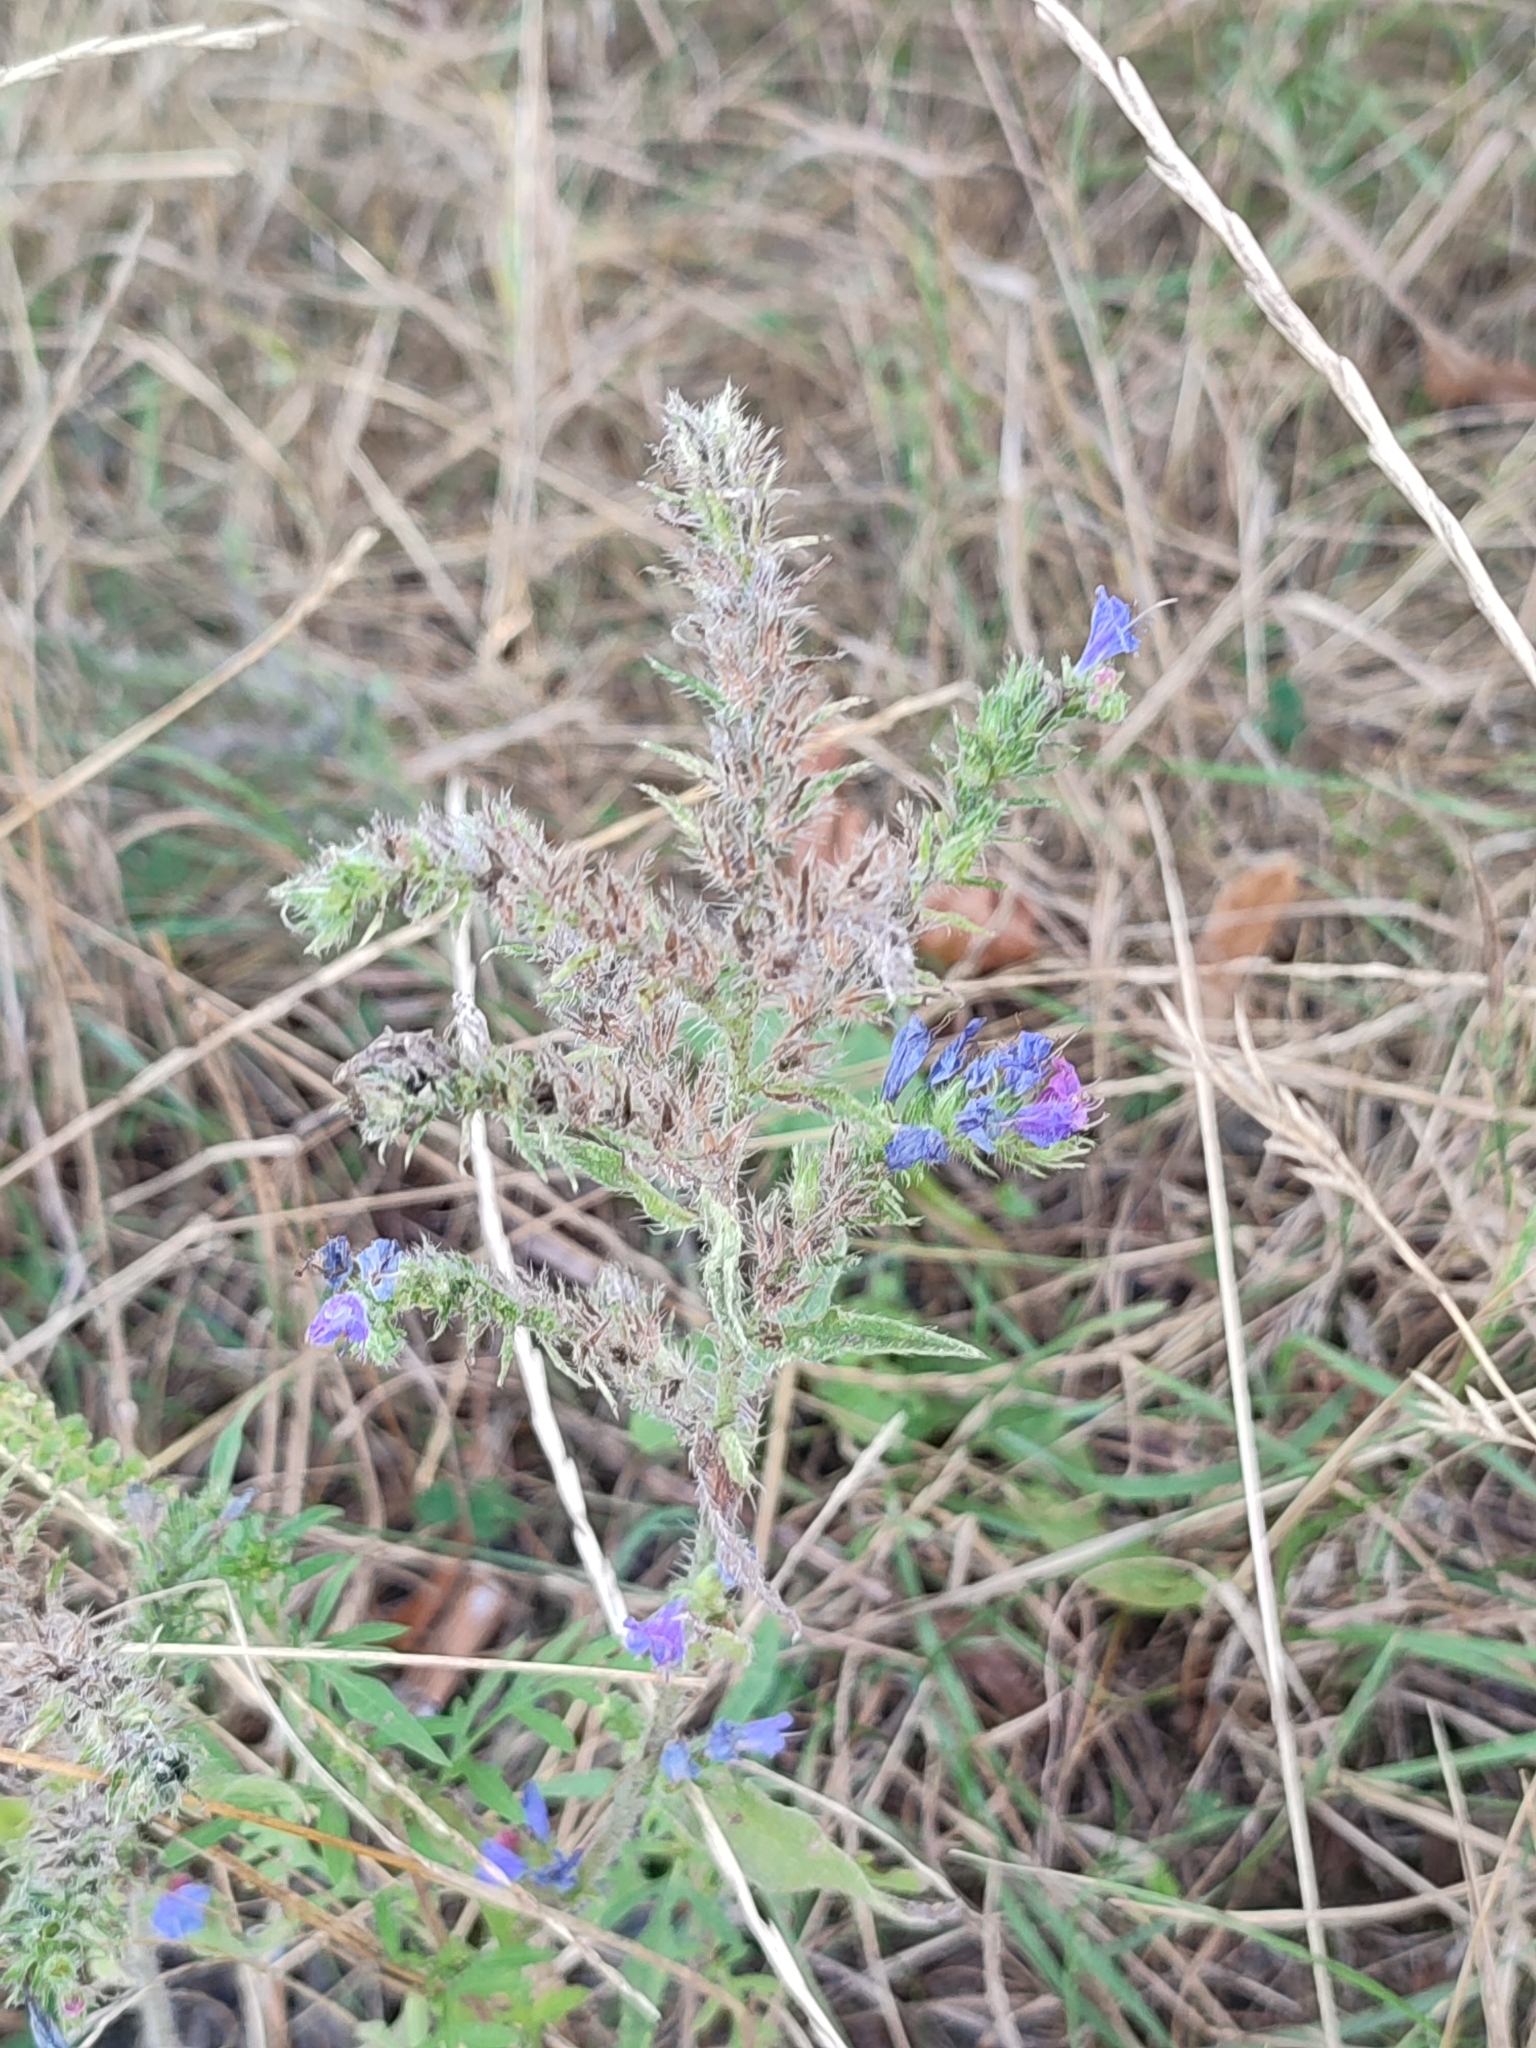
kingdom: Plantae
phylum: Tracheophyta
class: Magnoliopsida
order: Boraginales
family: Boraginaceae
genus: Echium
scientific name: Echium vulgare
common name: Common viper's bugloss
